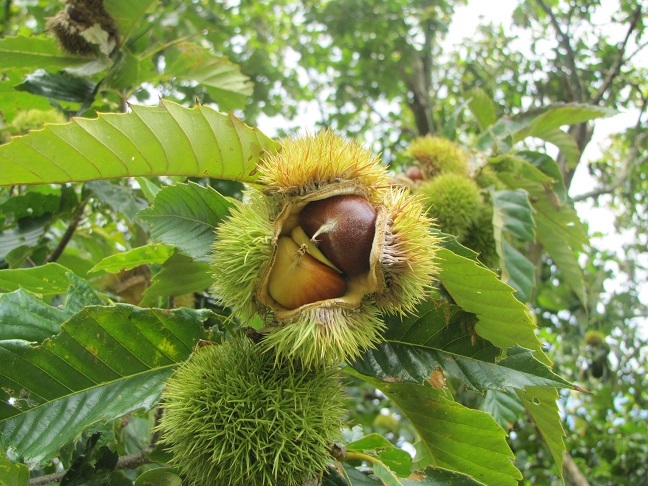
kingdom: Plantae
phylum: Tracheophyta
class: Magnoliopsida
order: Fagales
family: Fagaceae
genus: Castanea
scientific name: Castanea mollissima
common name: Chinese chestnut
